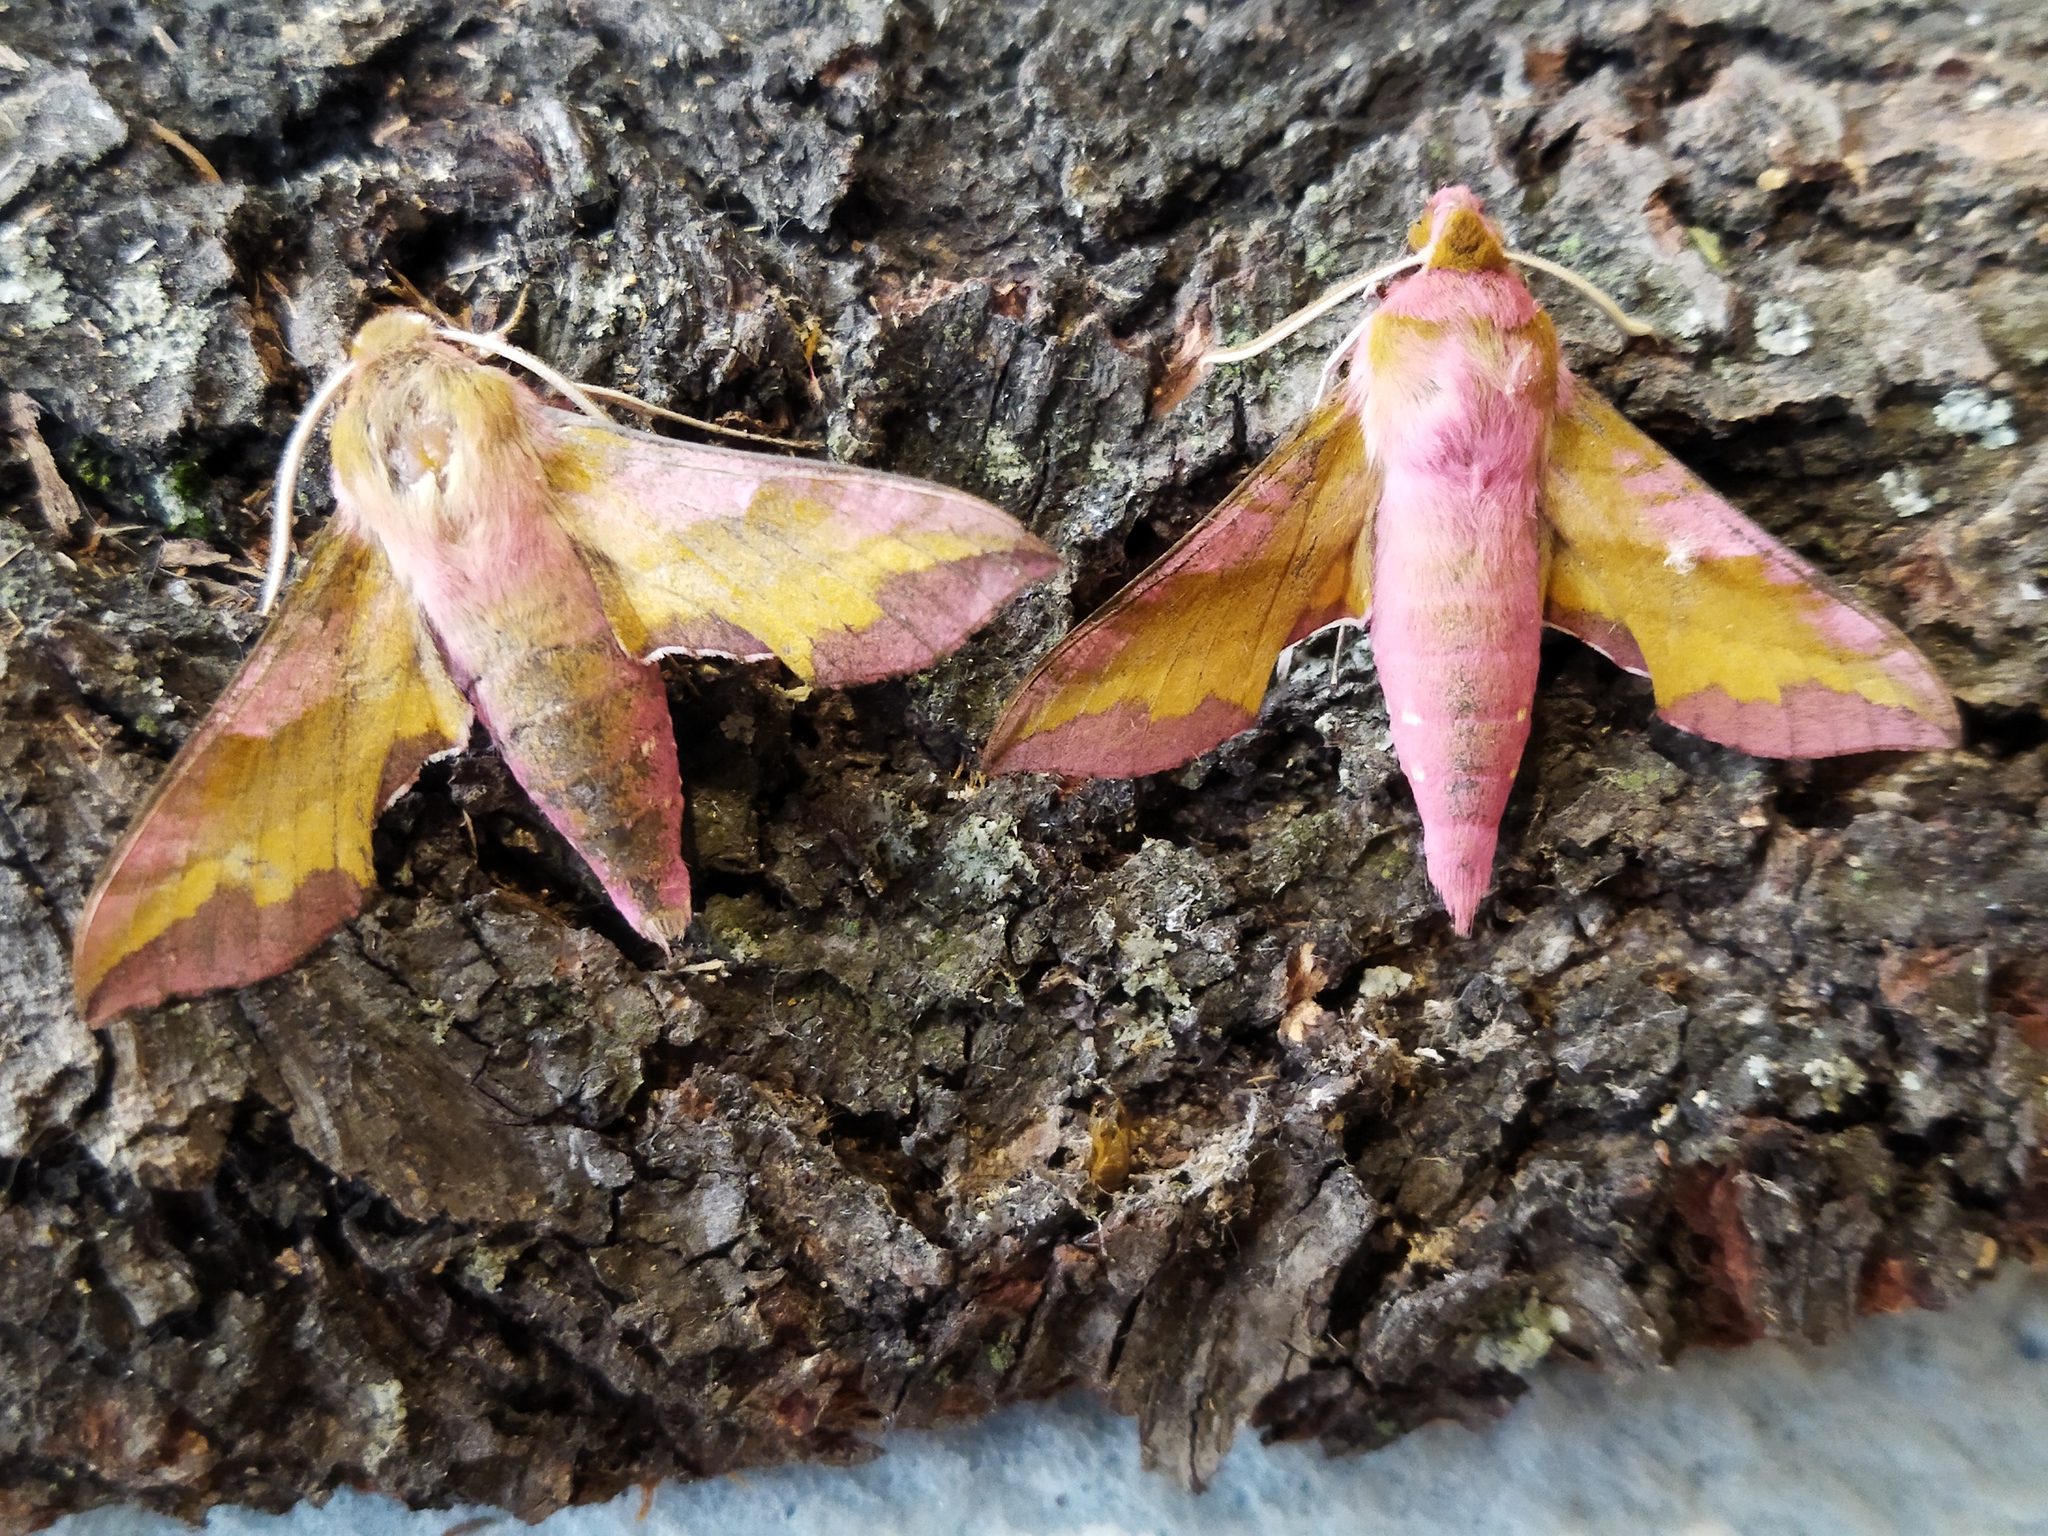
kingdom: Animalia
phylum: Arthropoda
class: Insecta
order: Lepidoptera
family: Sphingidae
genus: Deilephila
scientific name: Deilephila porcellus
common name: Small elephant hawk-moth
